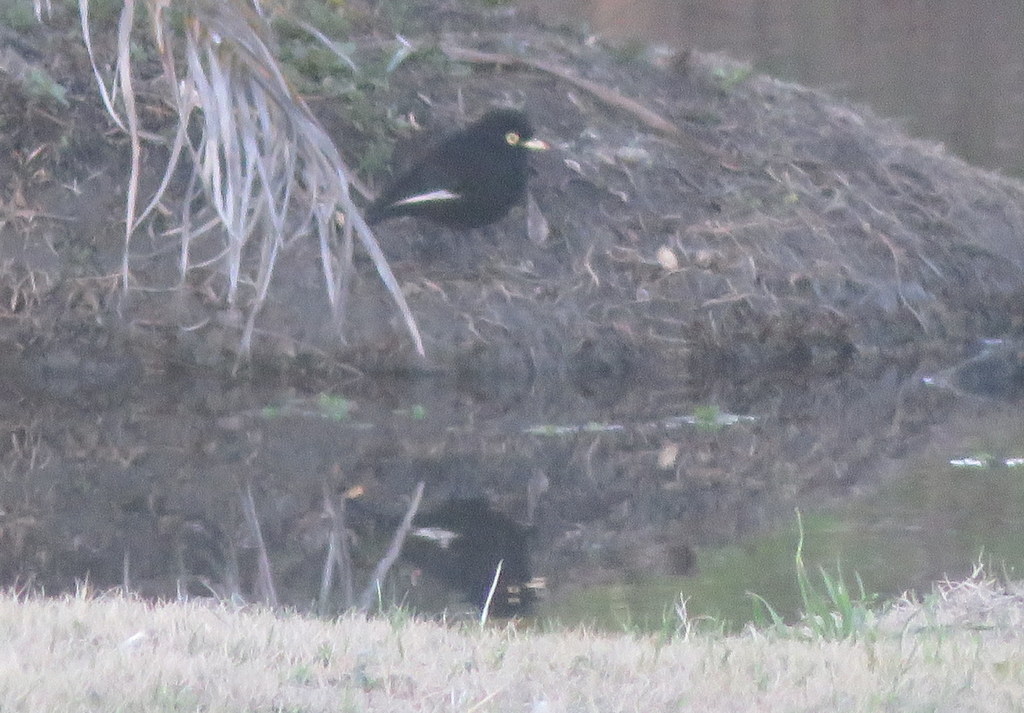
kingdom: Animalia
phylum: Chordata
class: Aves
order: Passeriformes
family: Tyrannidae
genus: Hymenops
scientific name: Hymenops perspicillatus
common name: Spectacled tyrant
